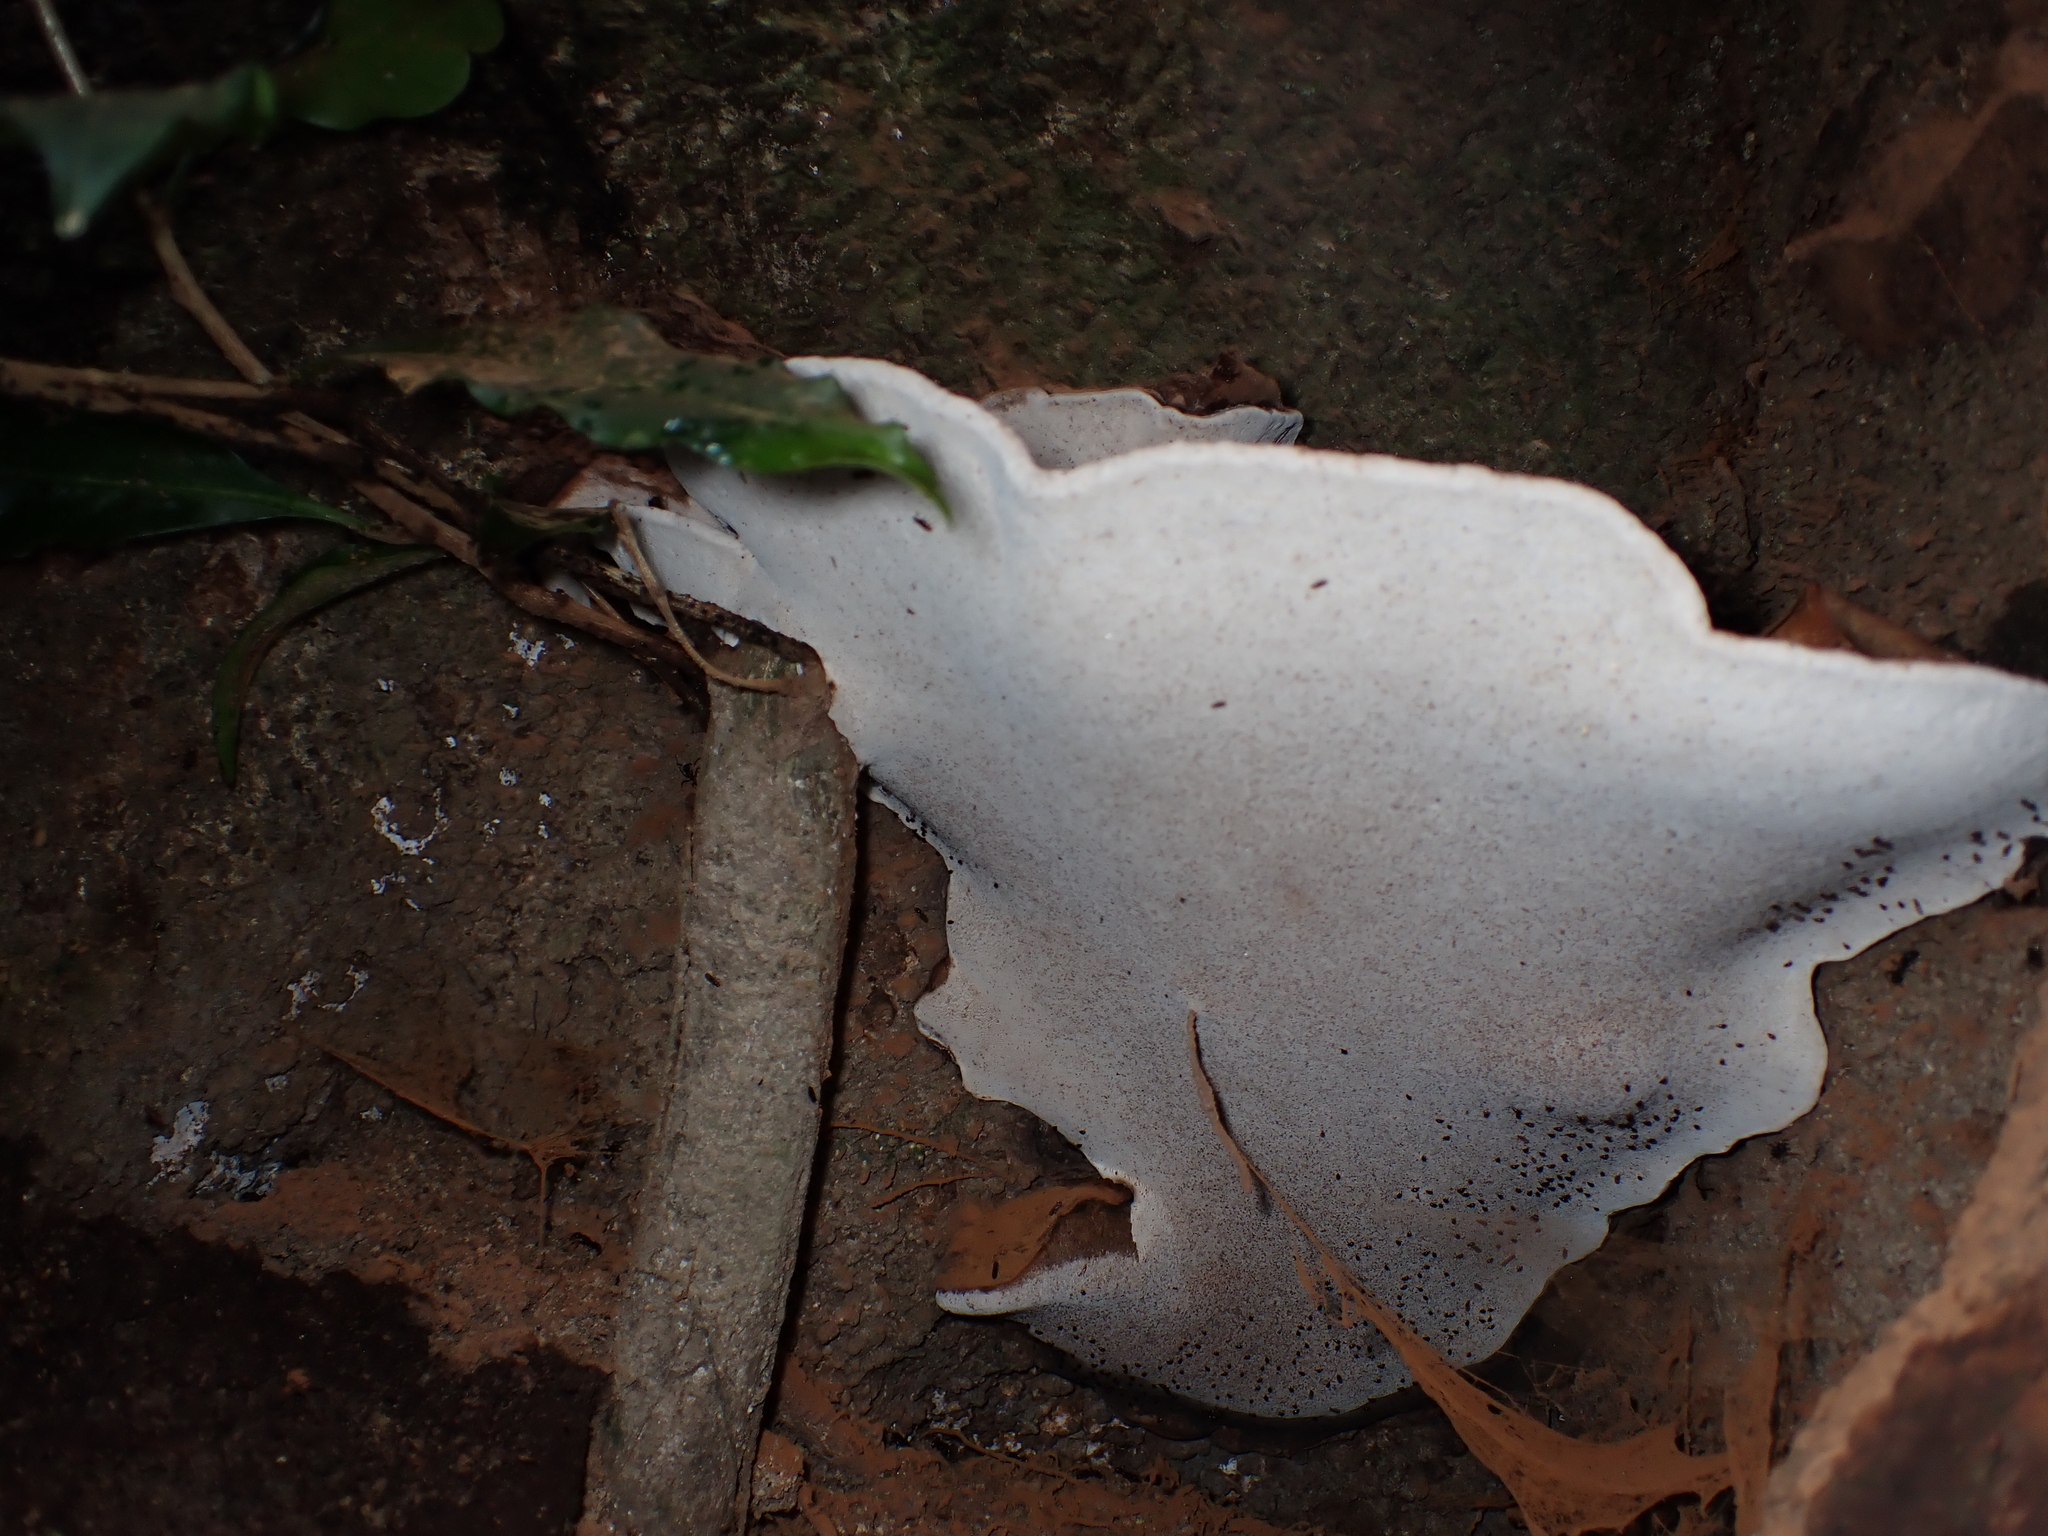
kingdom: Fungi
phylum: Basidiomycota
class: Agaricomycetes
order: Polyporales
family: Polyporaceae
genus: Ganoderma
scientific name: Ganoderma australe
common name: Southern bracket
